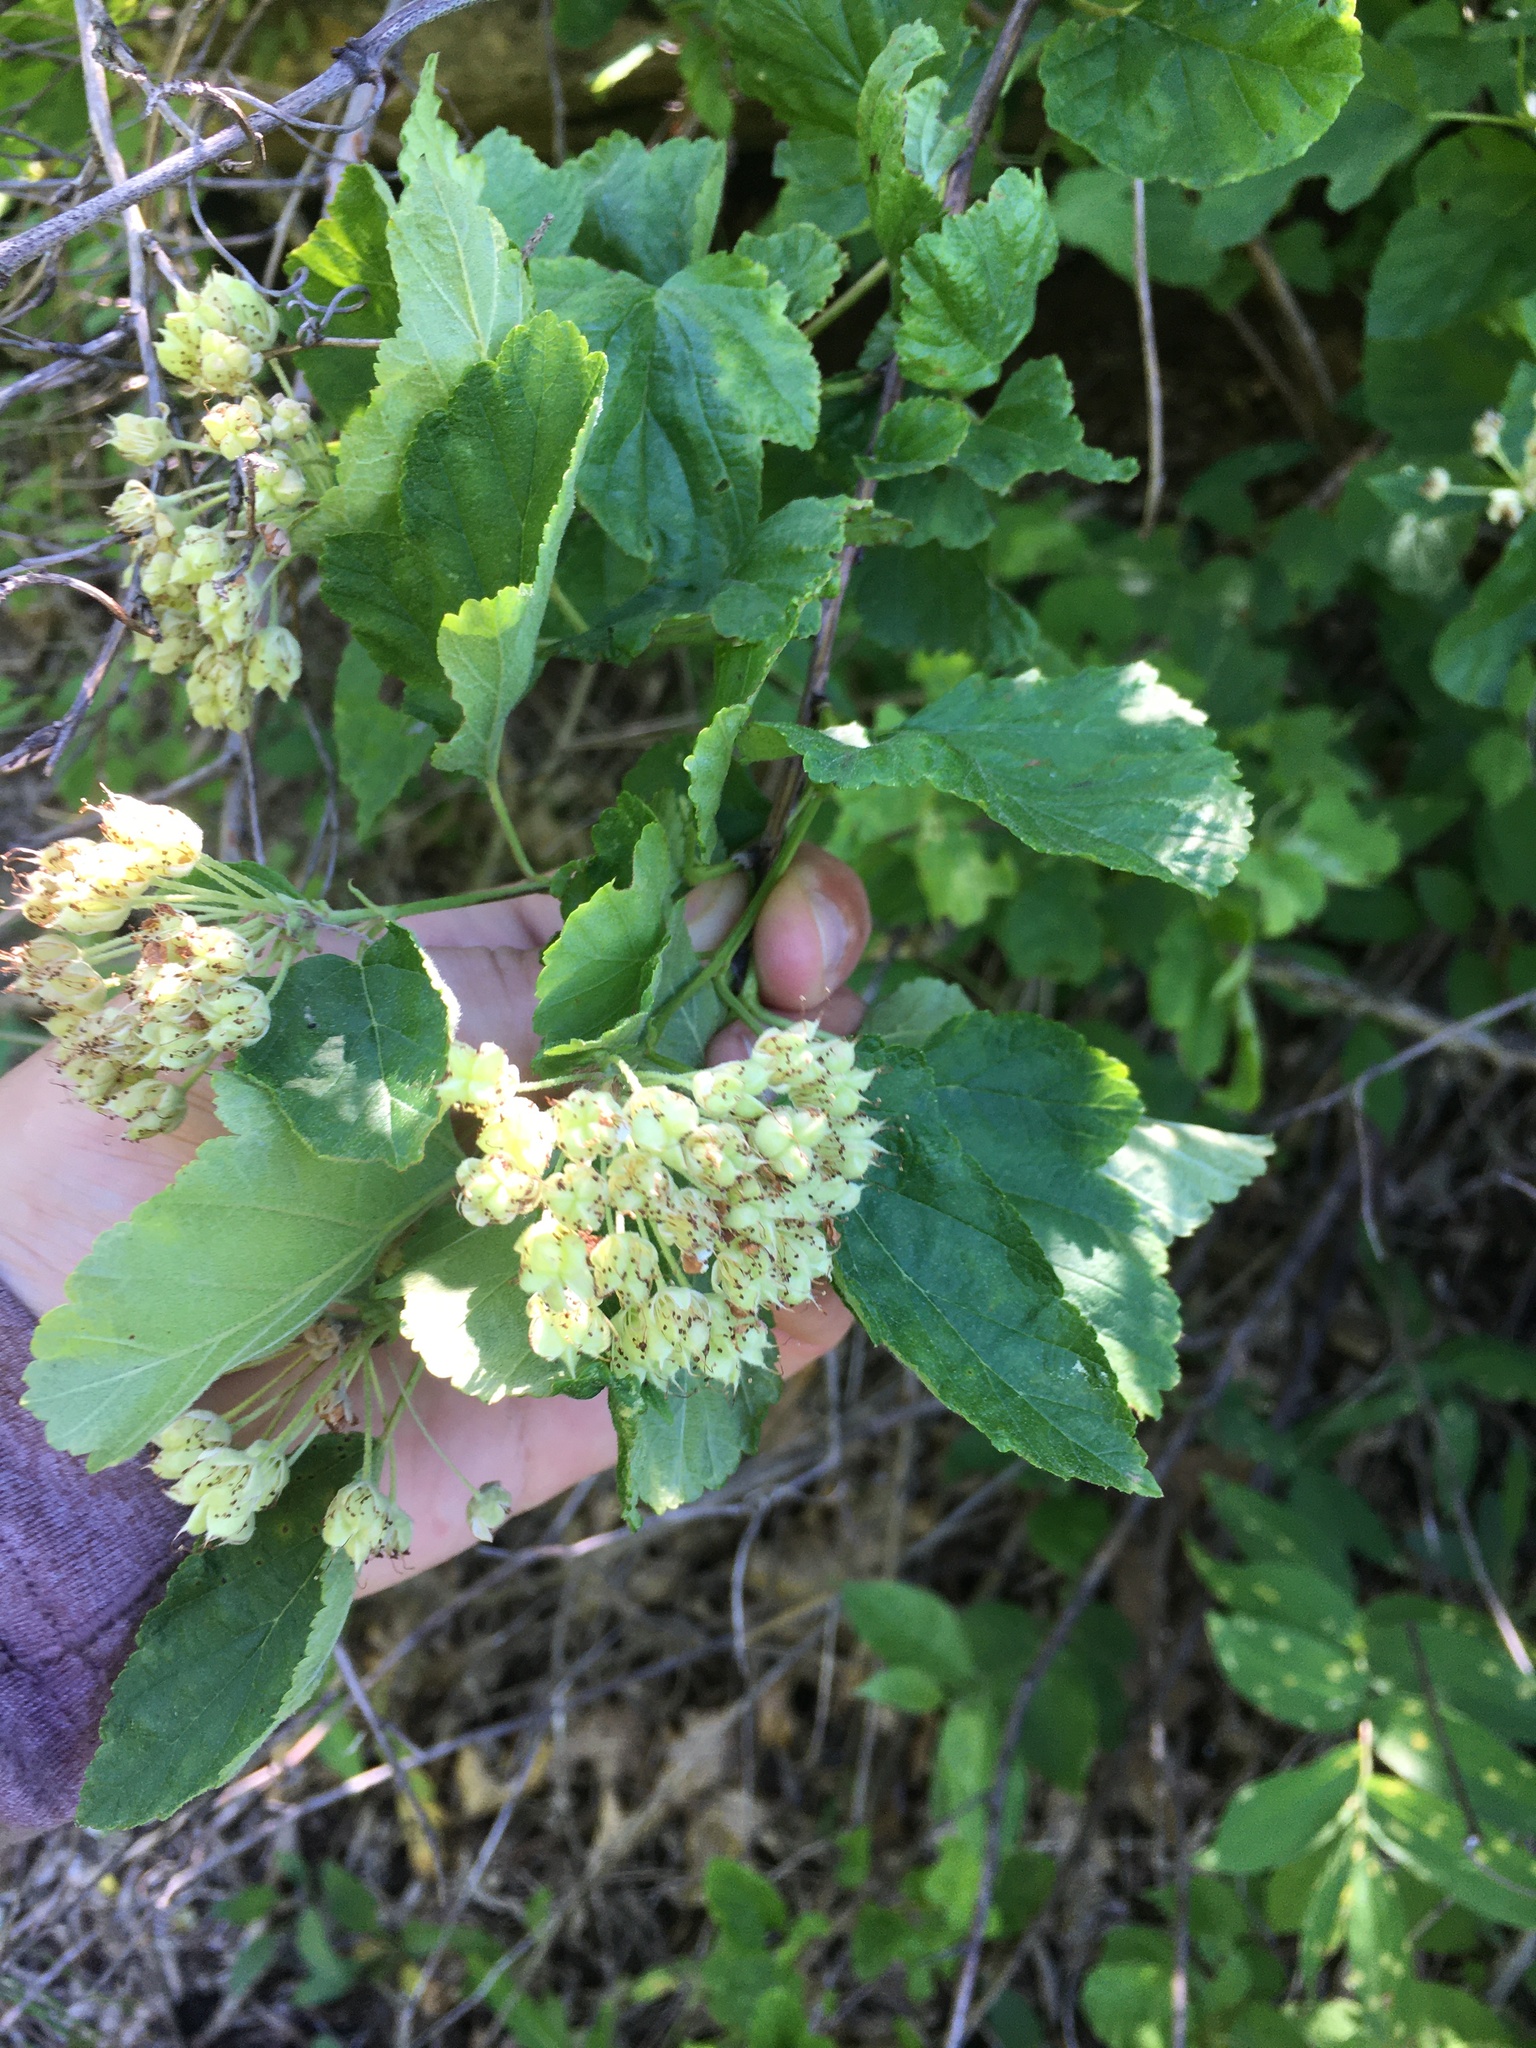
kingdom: Plantae
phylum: Tracheophyta
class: Magnoliopsida
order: Rosales
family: Rosaceae
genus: Physocarpus
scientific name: Physocarpus intermedius
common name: Midwestern ninebark
